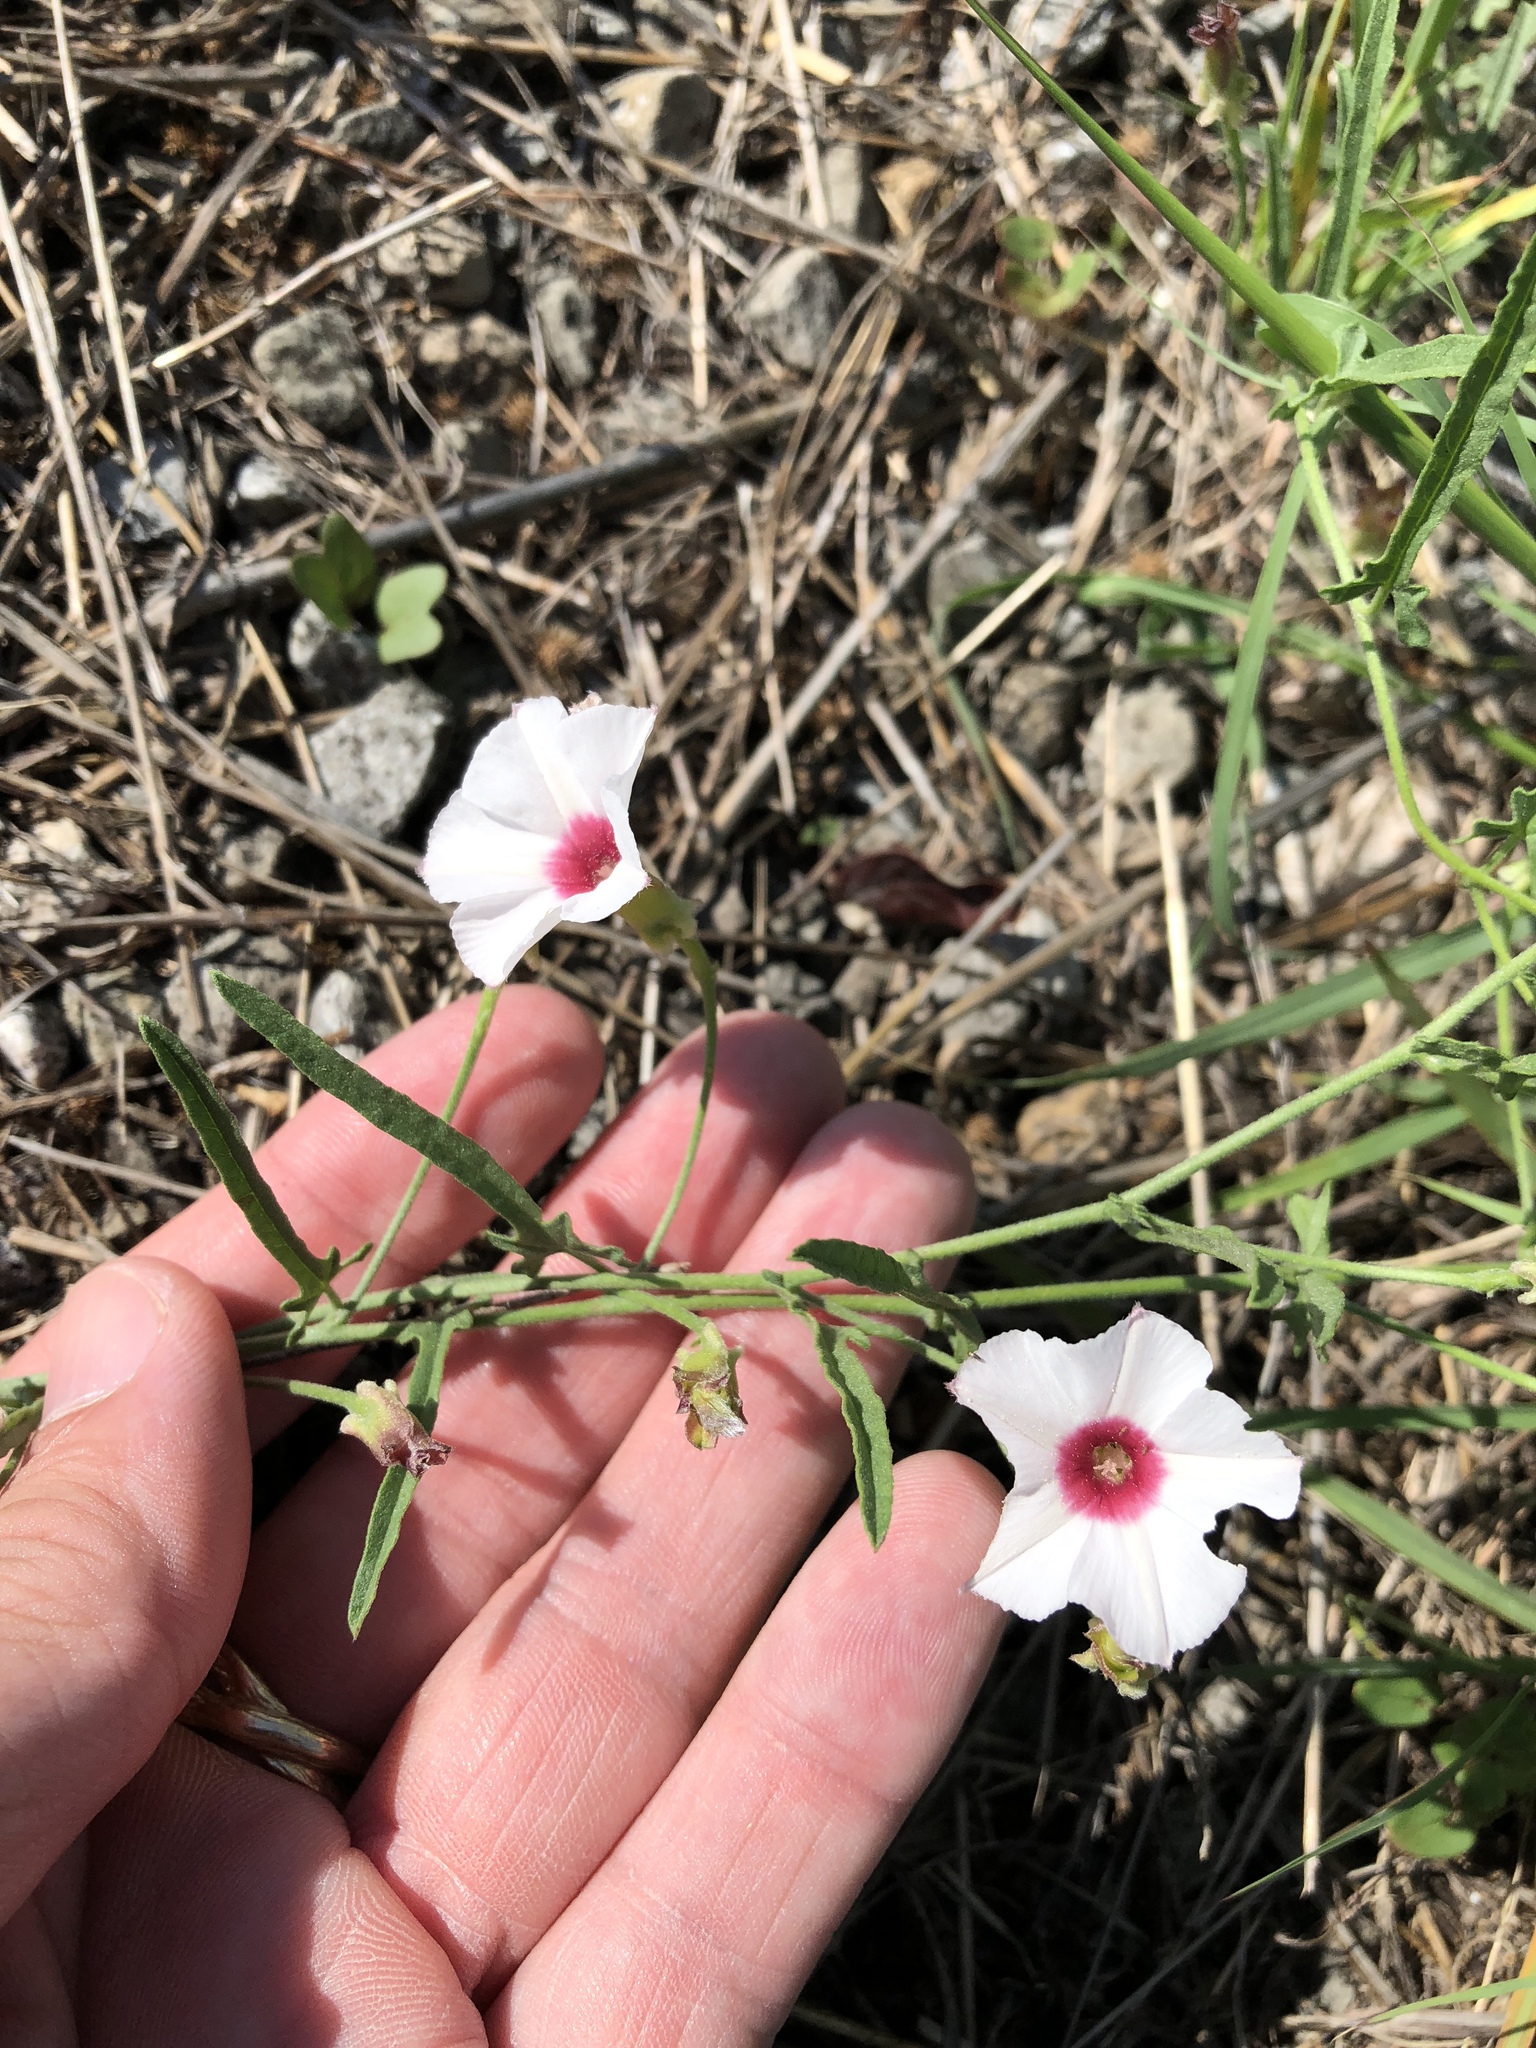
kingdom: Plantae
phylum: Tracheophyta
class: Magnoliopsida
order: Solanales
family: Convolvulaceae
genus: Convolvulus
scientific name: Convolvulus equitans
